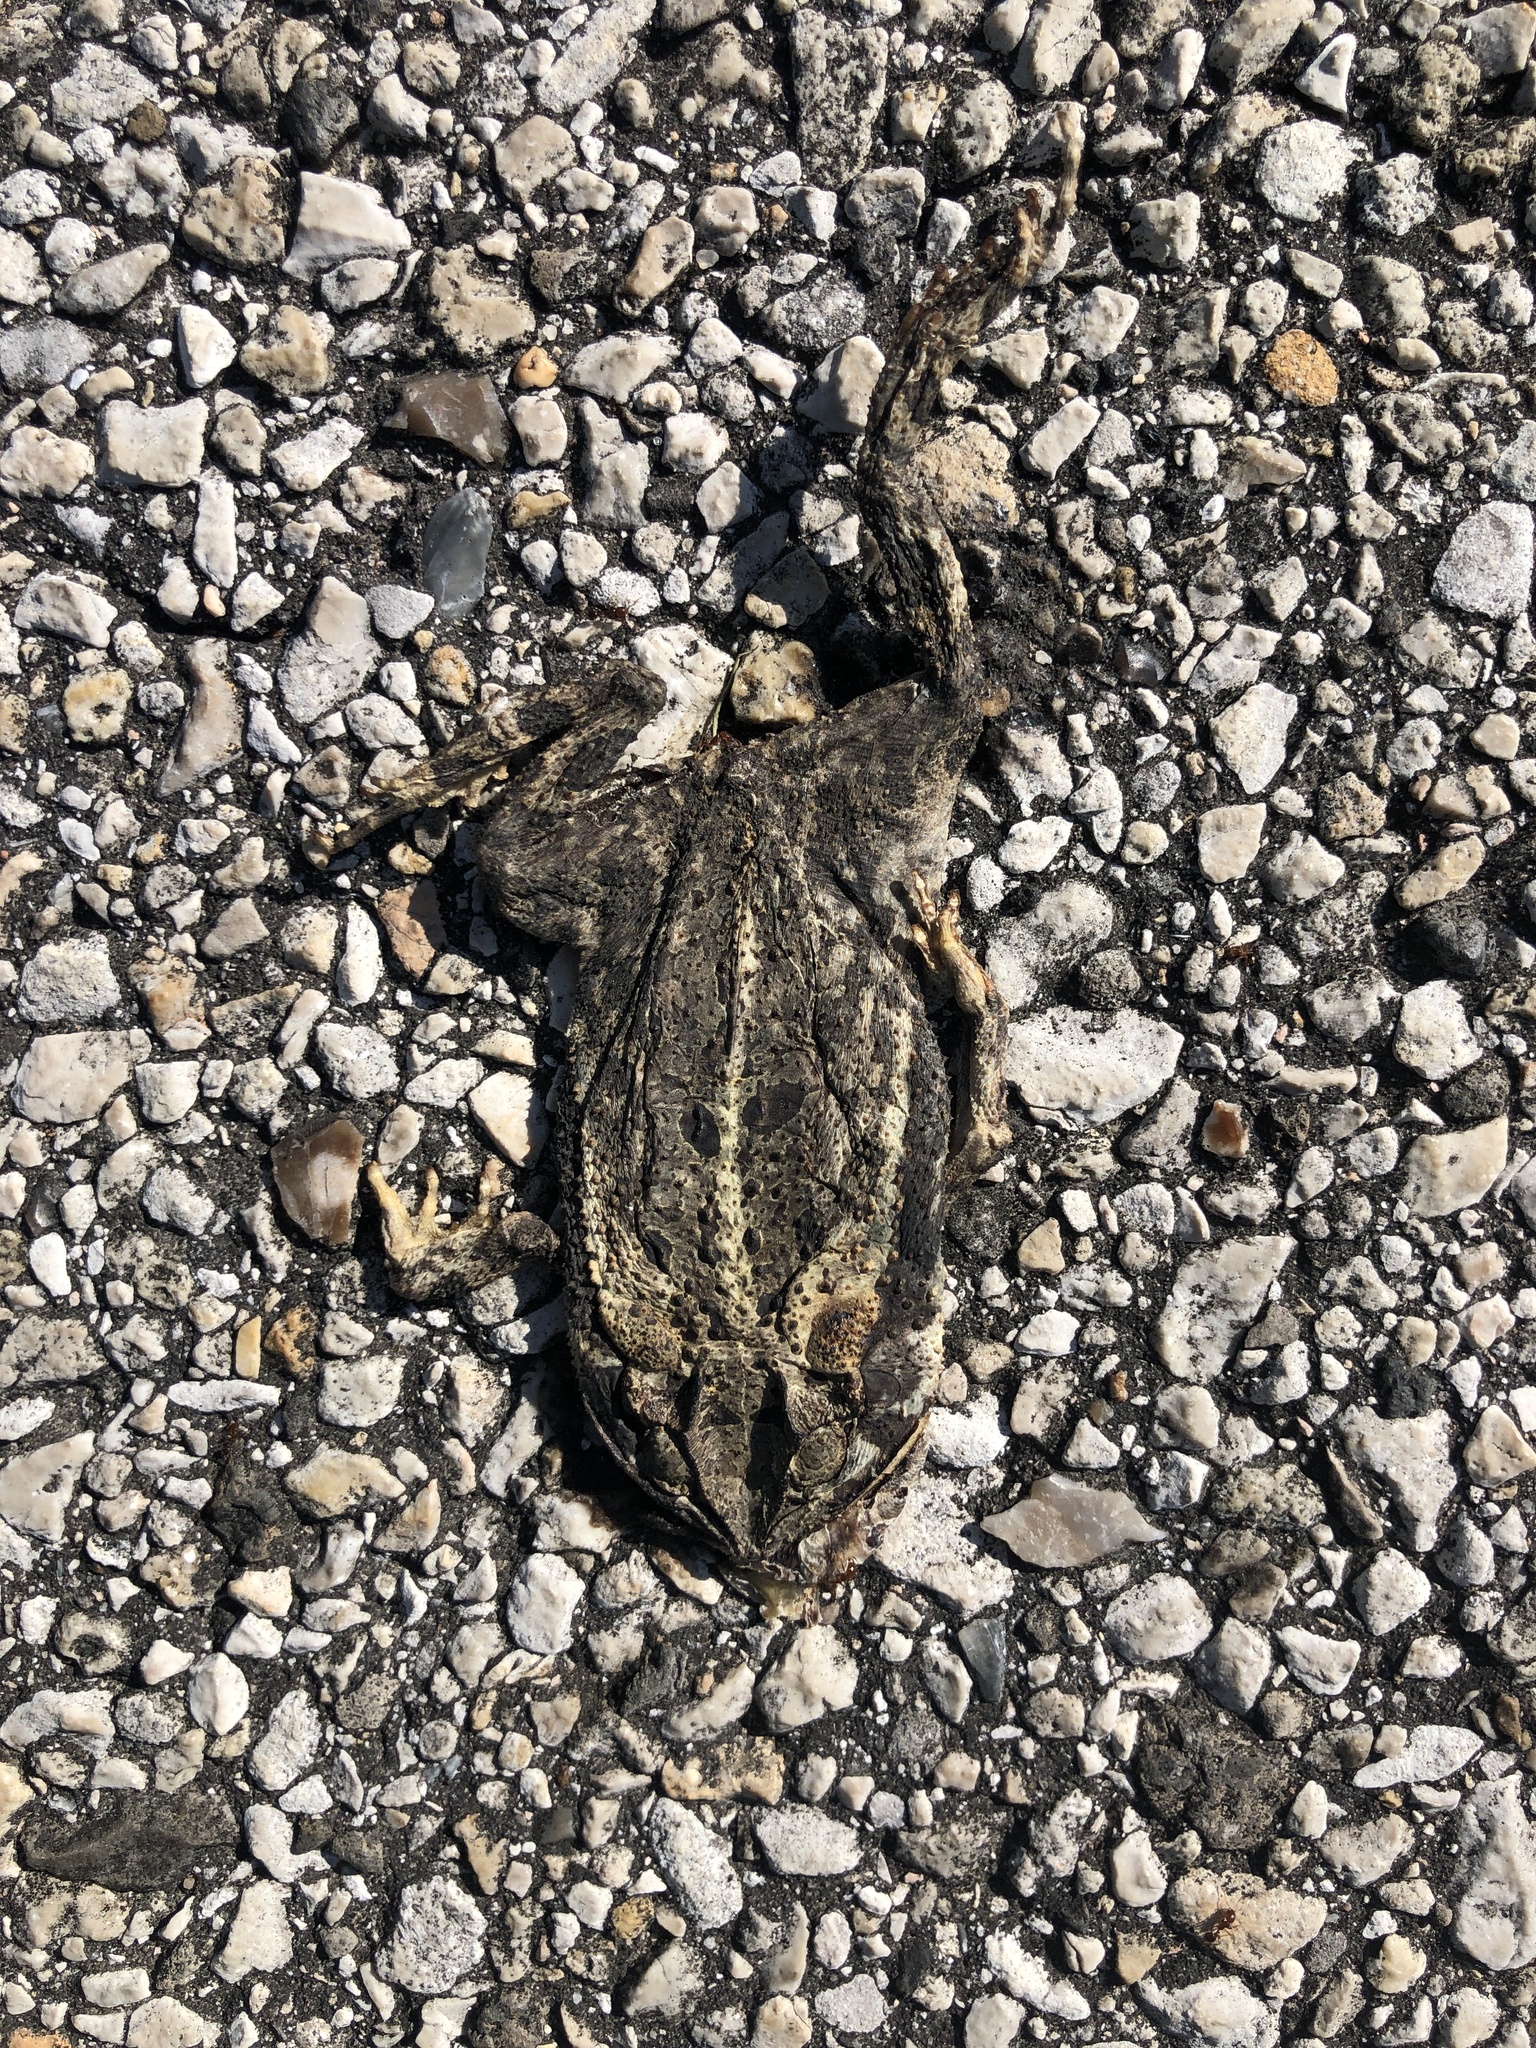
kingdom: Animalia
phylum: Chordata
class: Amphibia
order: Anura
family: Bufonidae
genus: Incilius
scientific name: Incilius nebulifer
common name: Gulf coast toad
